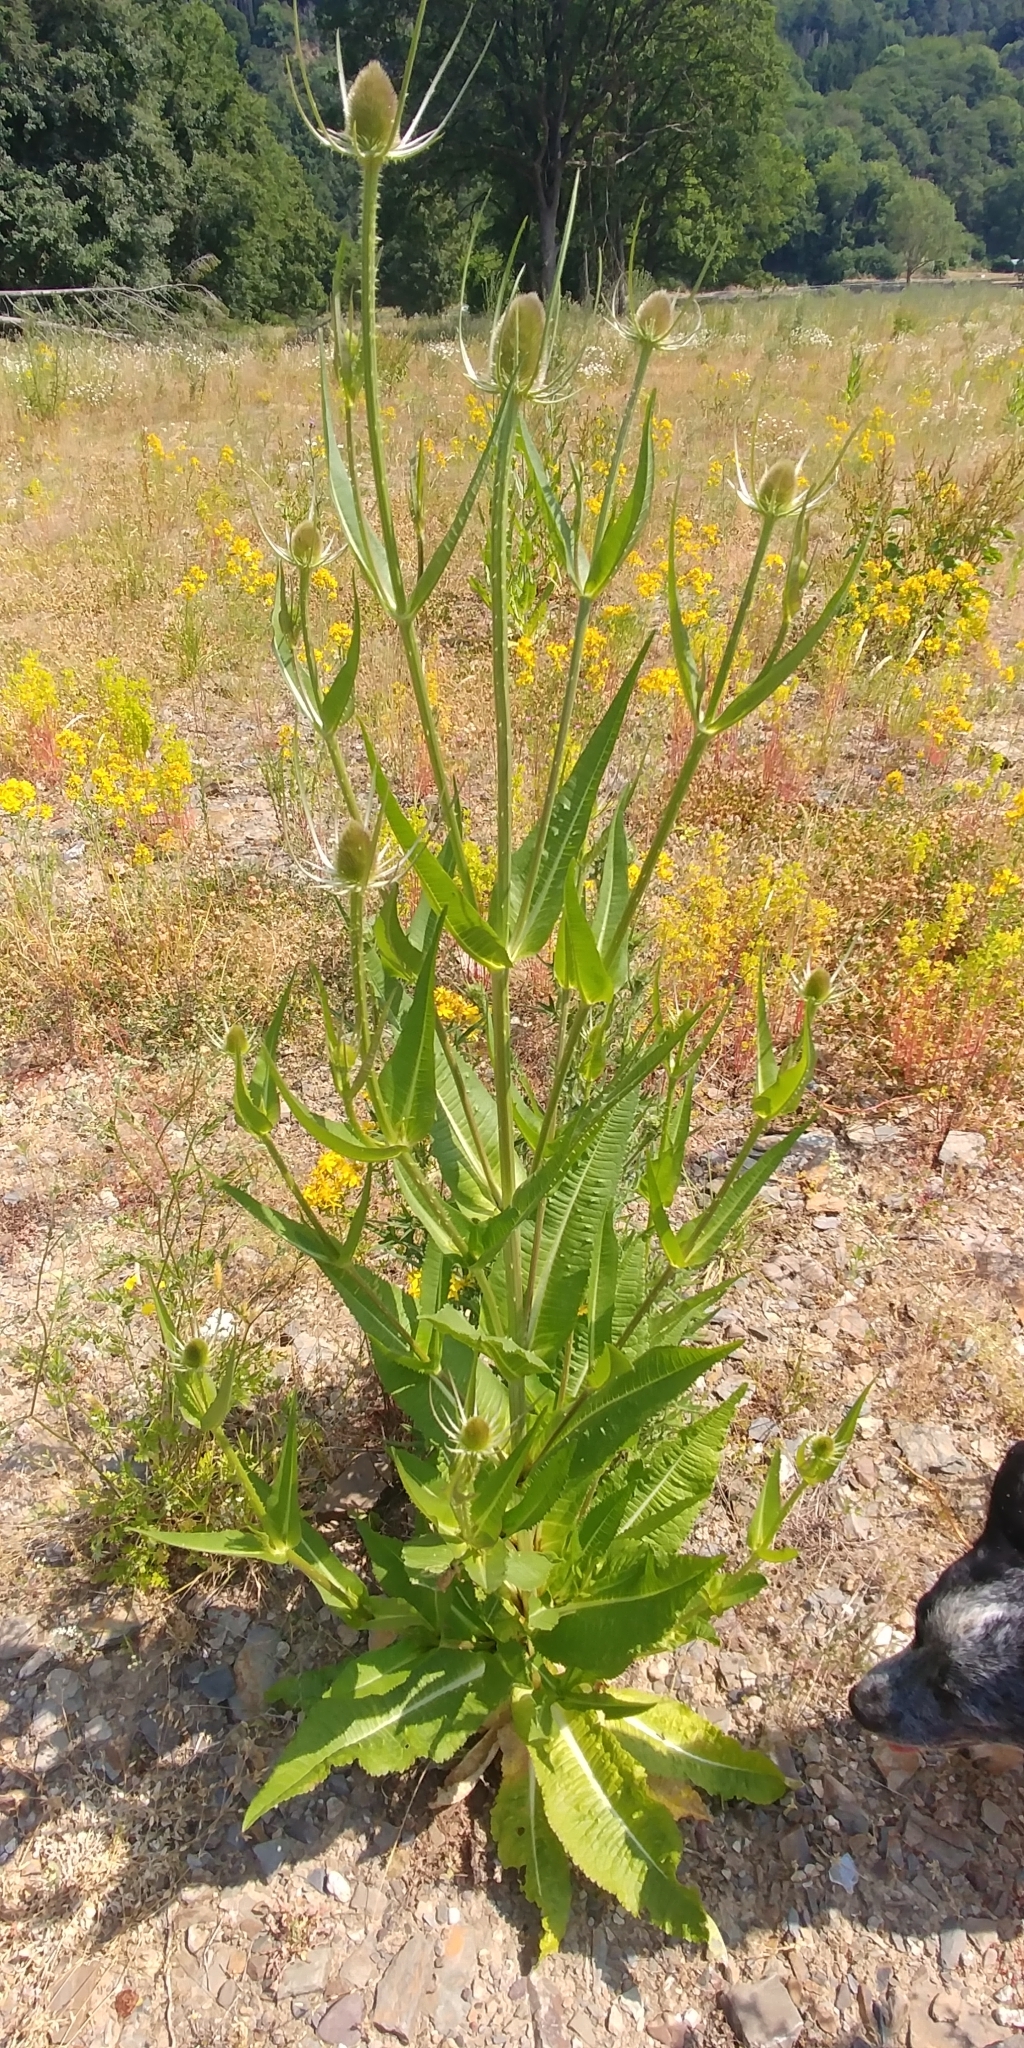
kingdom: Plantae
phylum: Tracheophyta
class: Magnoliopsida
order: Dipsacales
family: Caprifoliaceae
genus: Dipsacus
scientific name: Dipsacus fullonum
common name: Teasel
